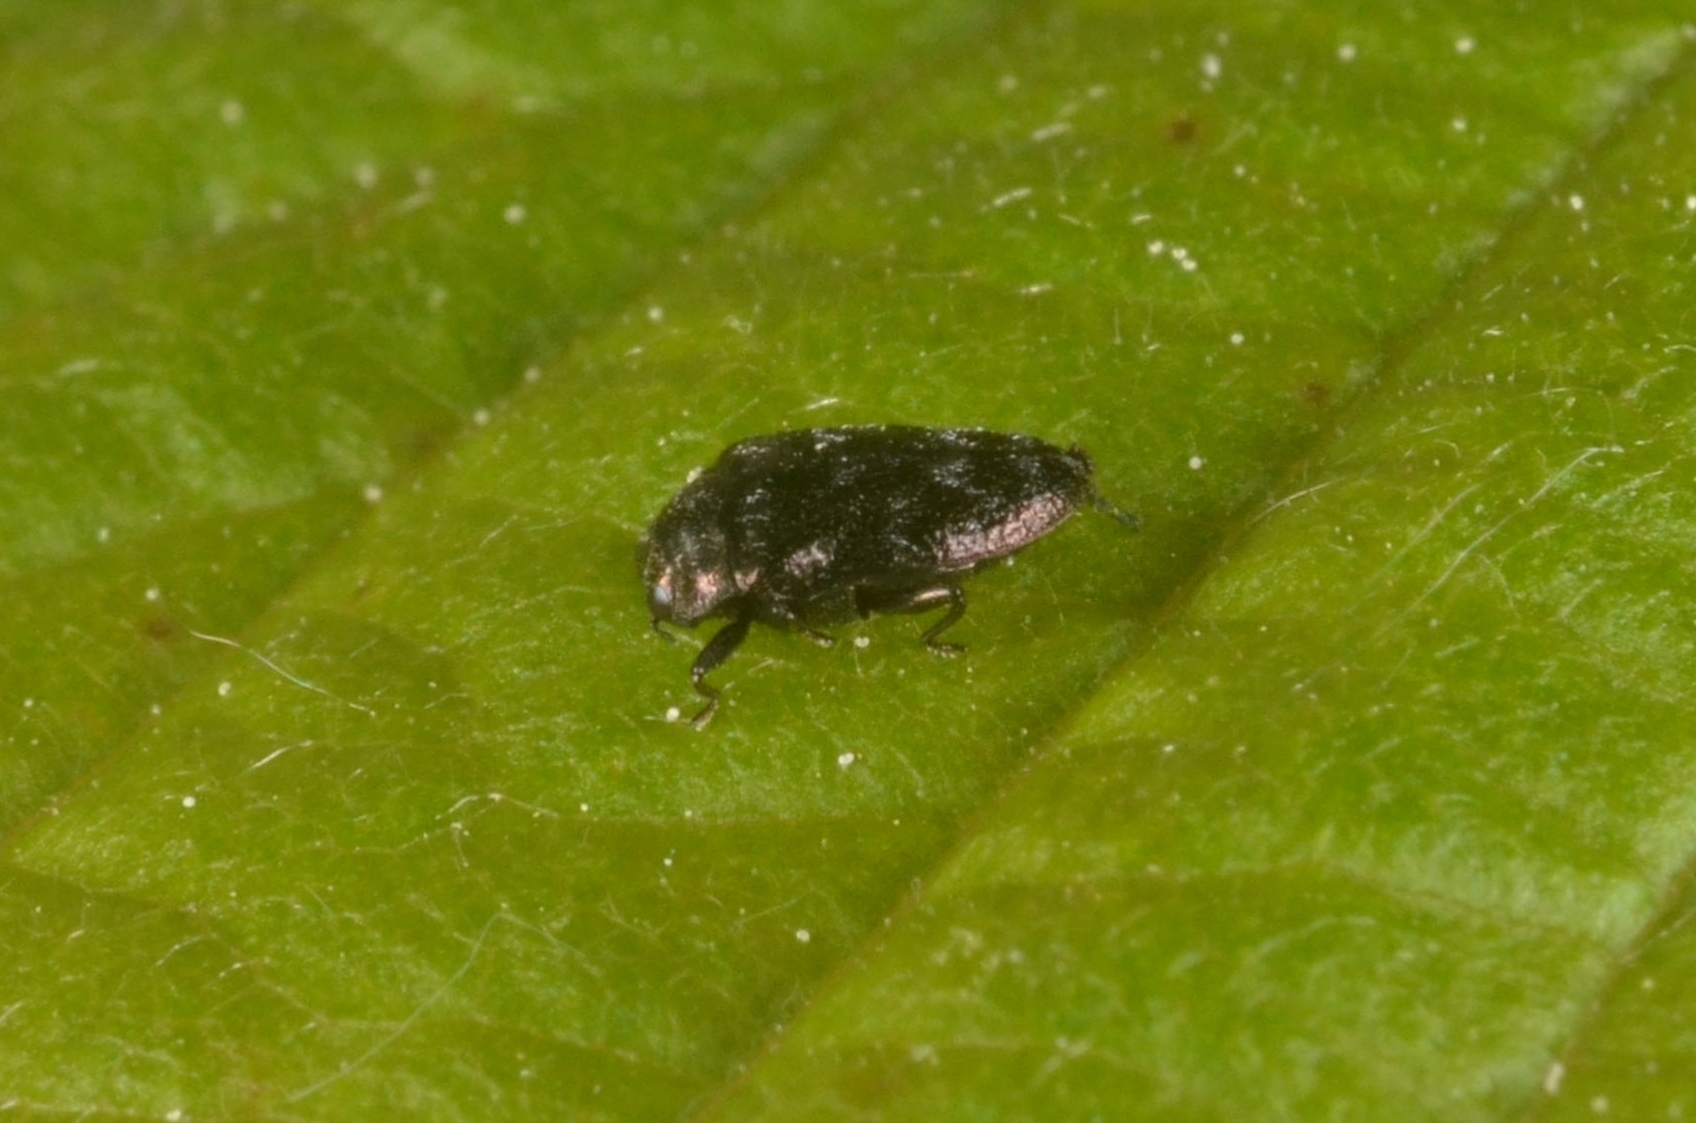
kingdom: Animalia
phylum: Arthropoda
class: Insecta
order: Coleoptera
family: Buprestidae
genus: Trachys
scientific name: Trachys minutus
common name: Metallic wood-boring beetle
